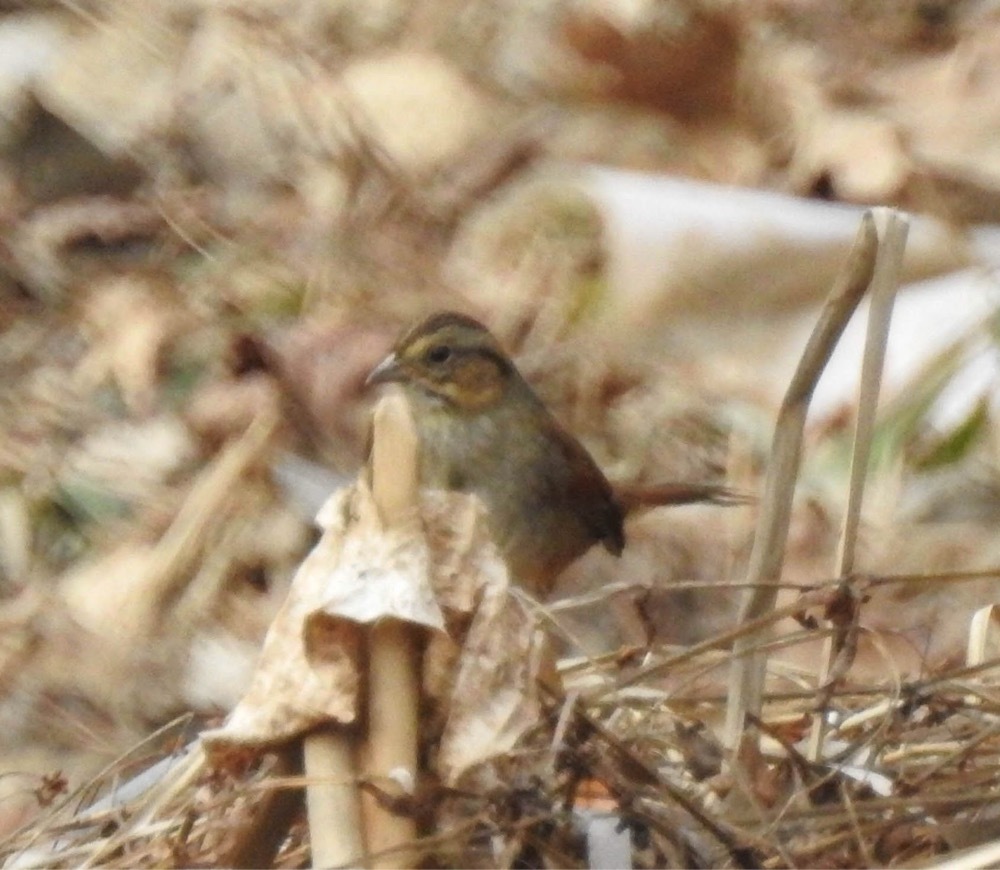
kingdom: Animalia
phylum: Chordata
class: Aves
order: Passeriformes
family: Passerellidae
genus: Melospiza
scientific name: Melospiza georgiana
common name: Swamp sparrow
